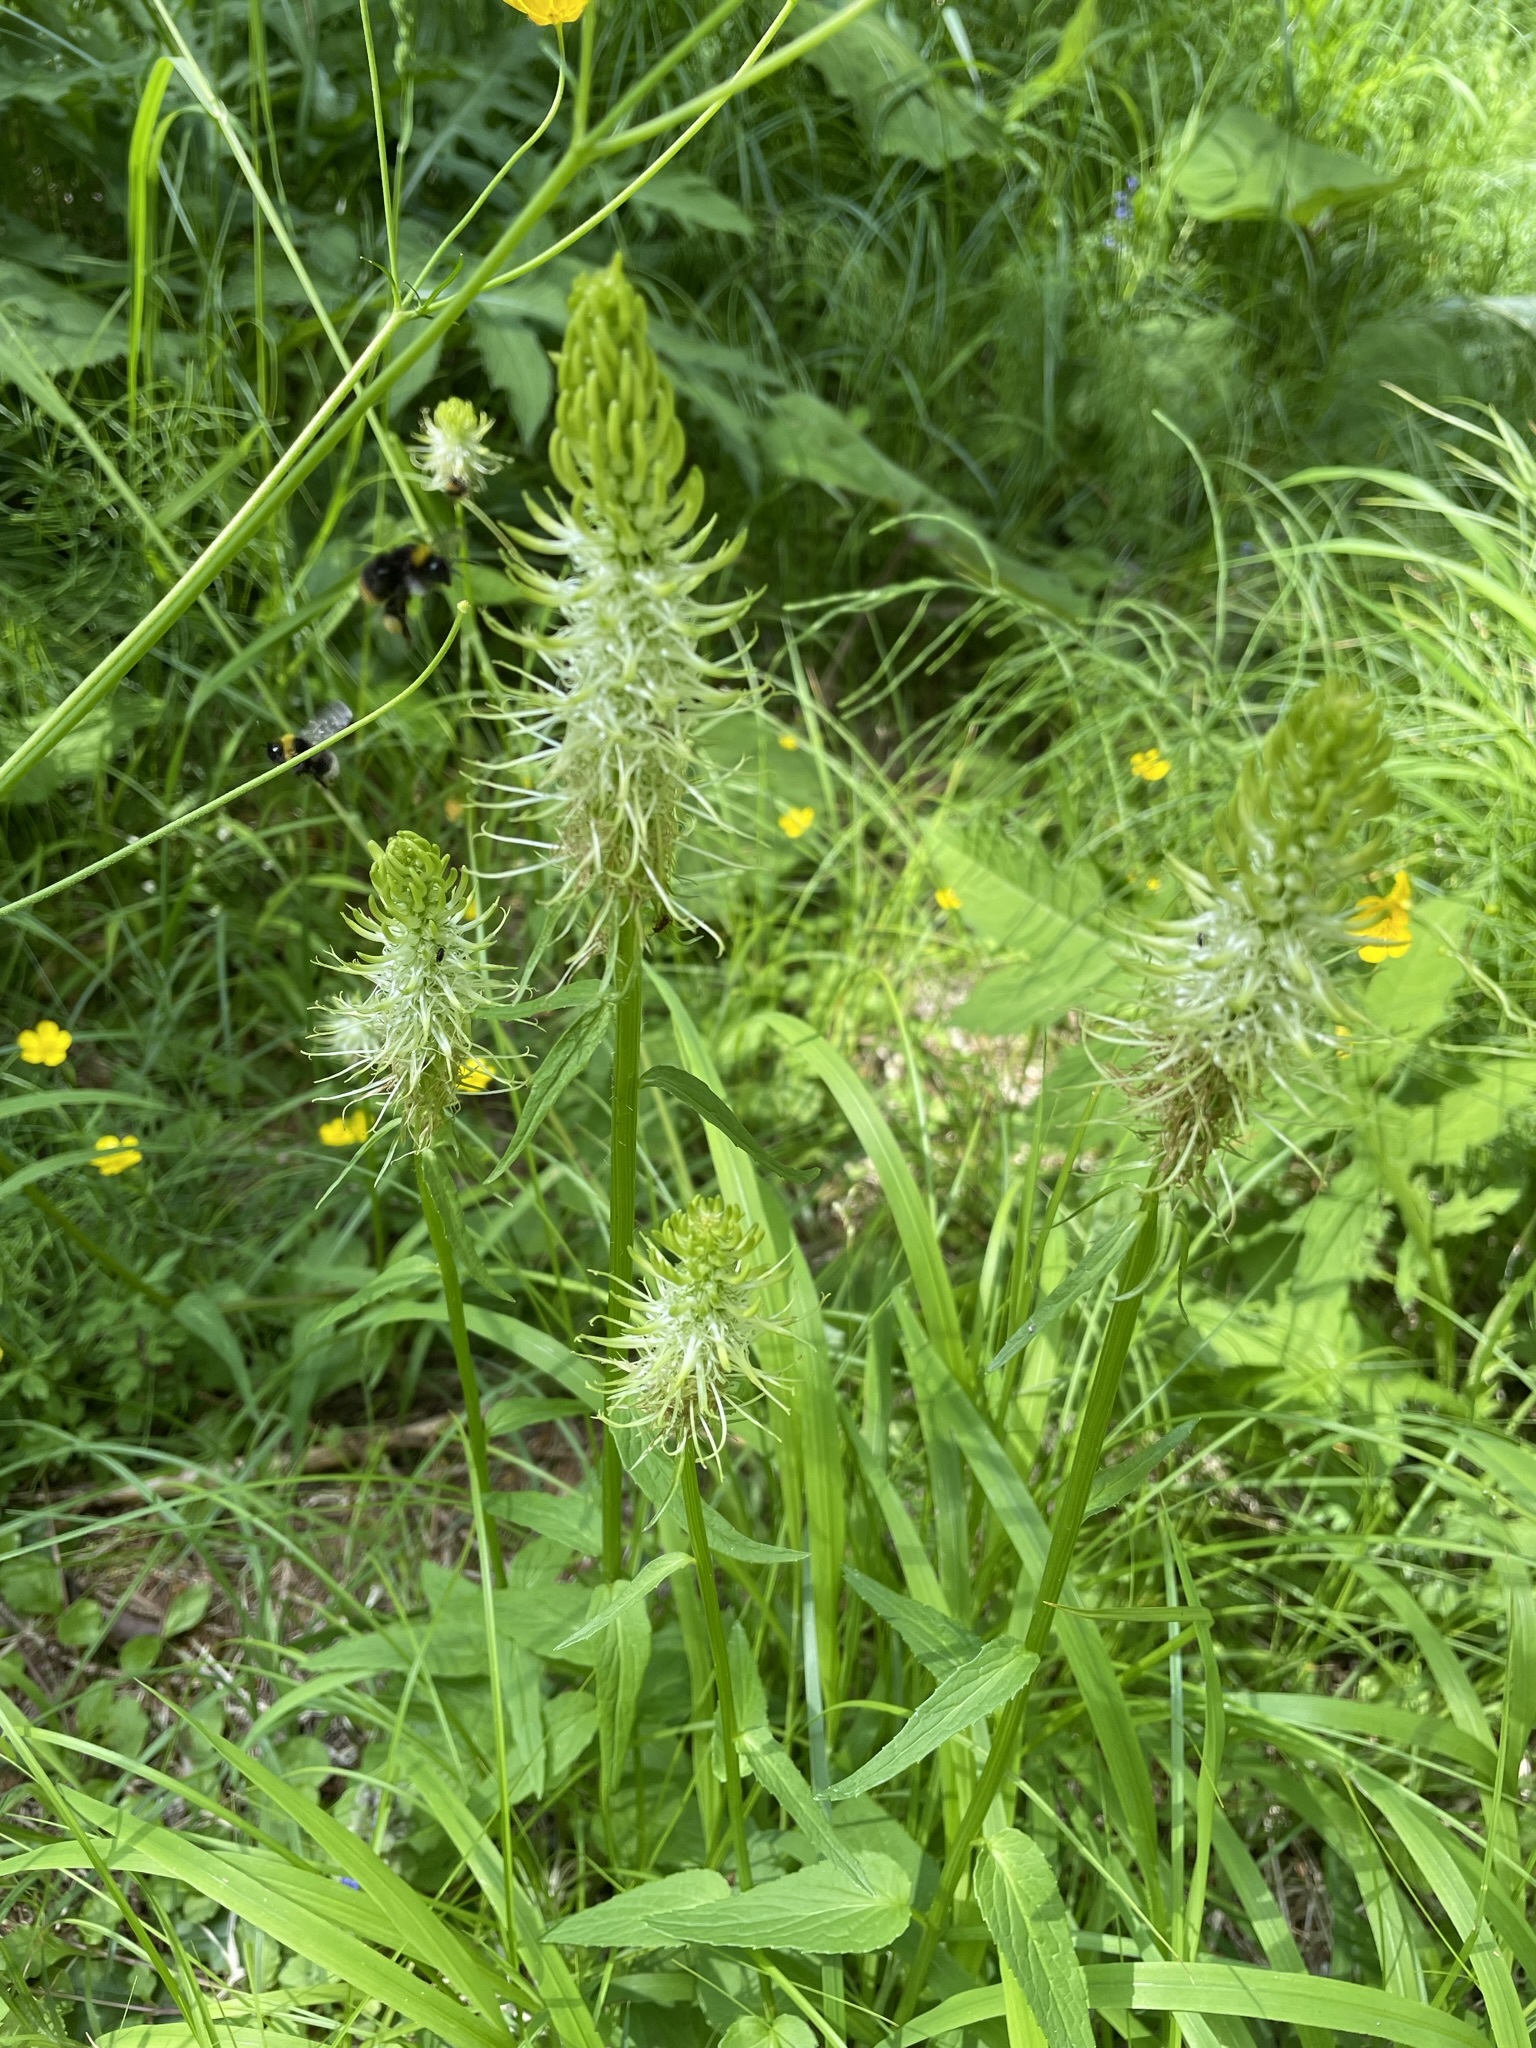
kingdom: Plantae
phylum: Tracheophyta
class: Magnoliopsida
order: Asterales
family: Campanulaceae
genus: Phyteuma
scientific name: Phyteuma spicatum
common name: Spiked rampion
